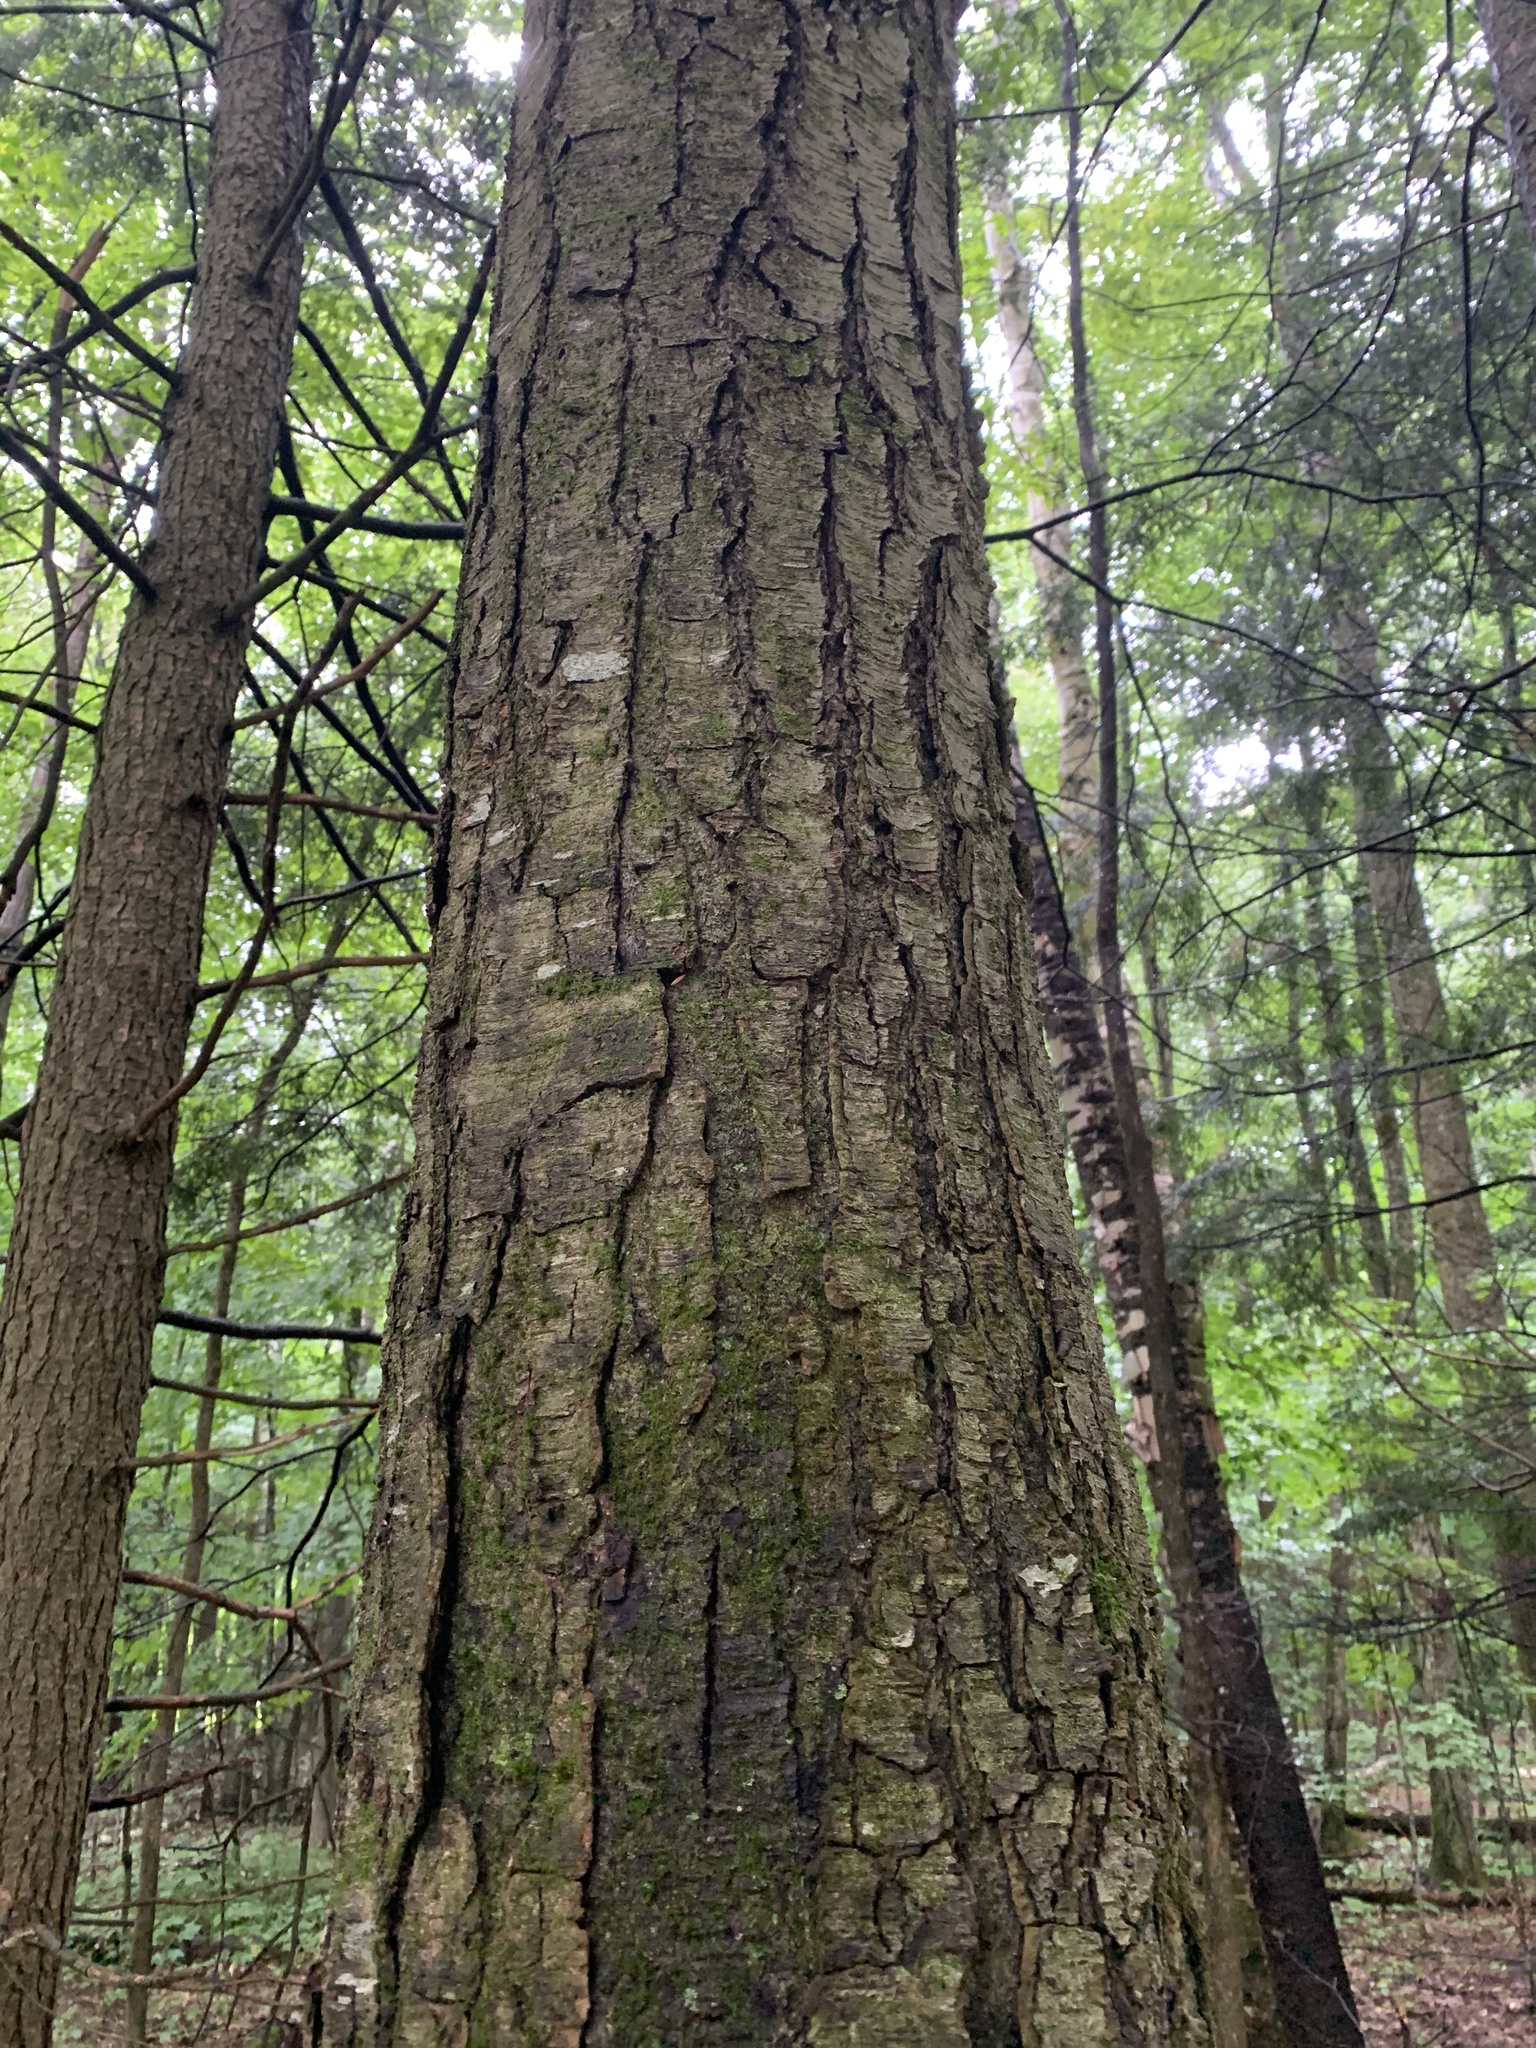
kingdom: Plantae
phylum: Tracheophyta
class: Magnoliopsida
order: Fagales
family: Betulaceae
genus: Betula
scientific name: Betula lenta
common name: Black birch
